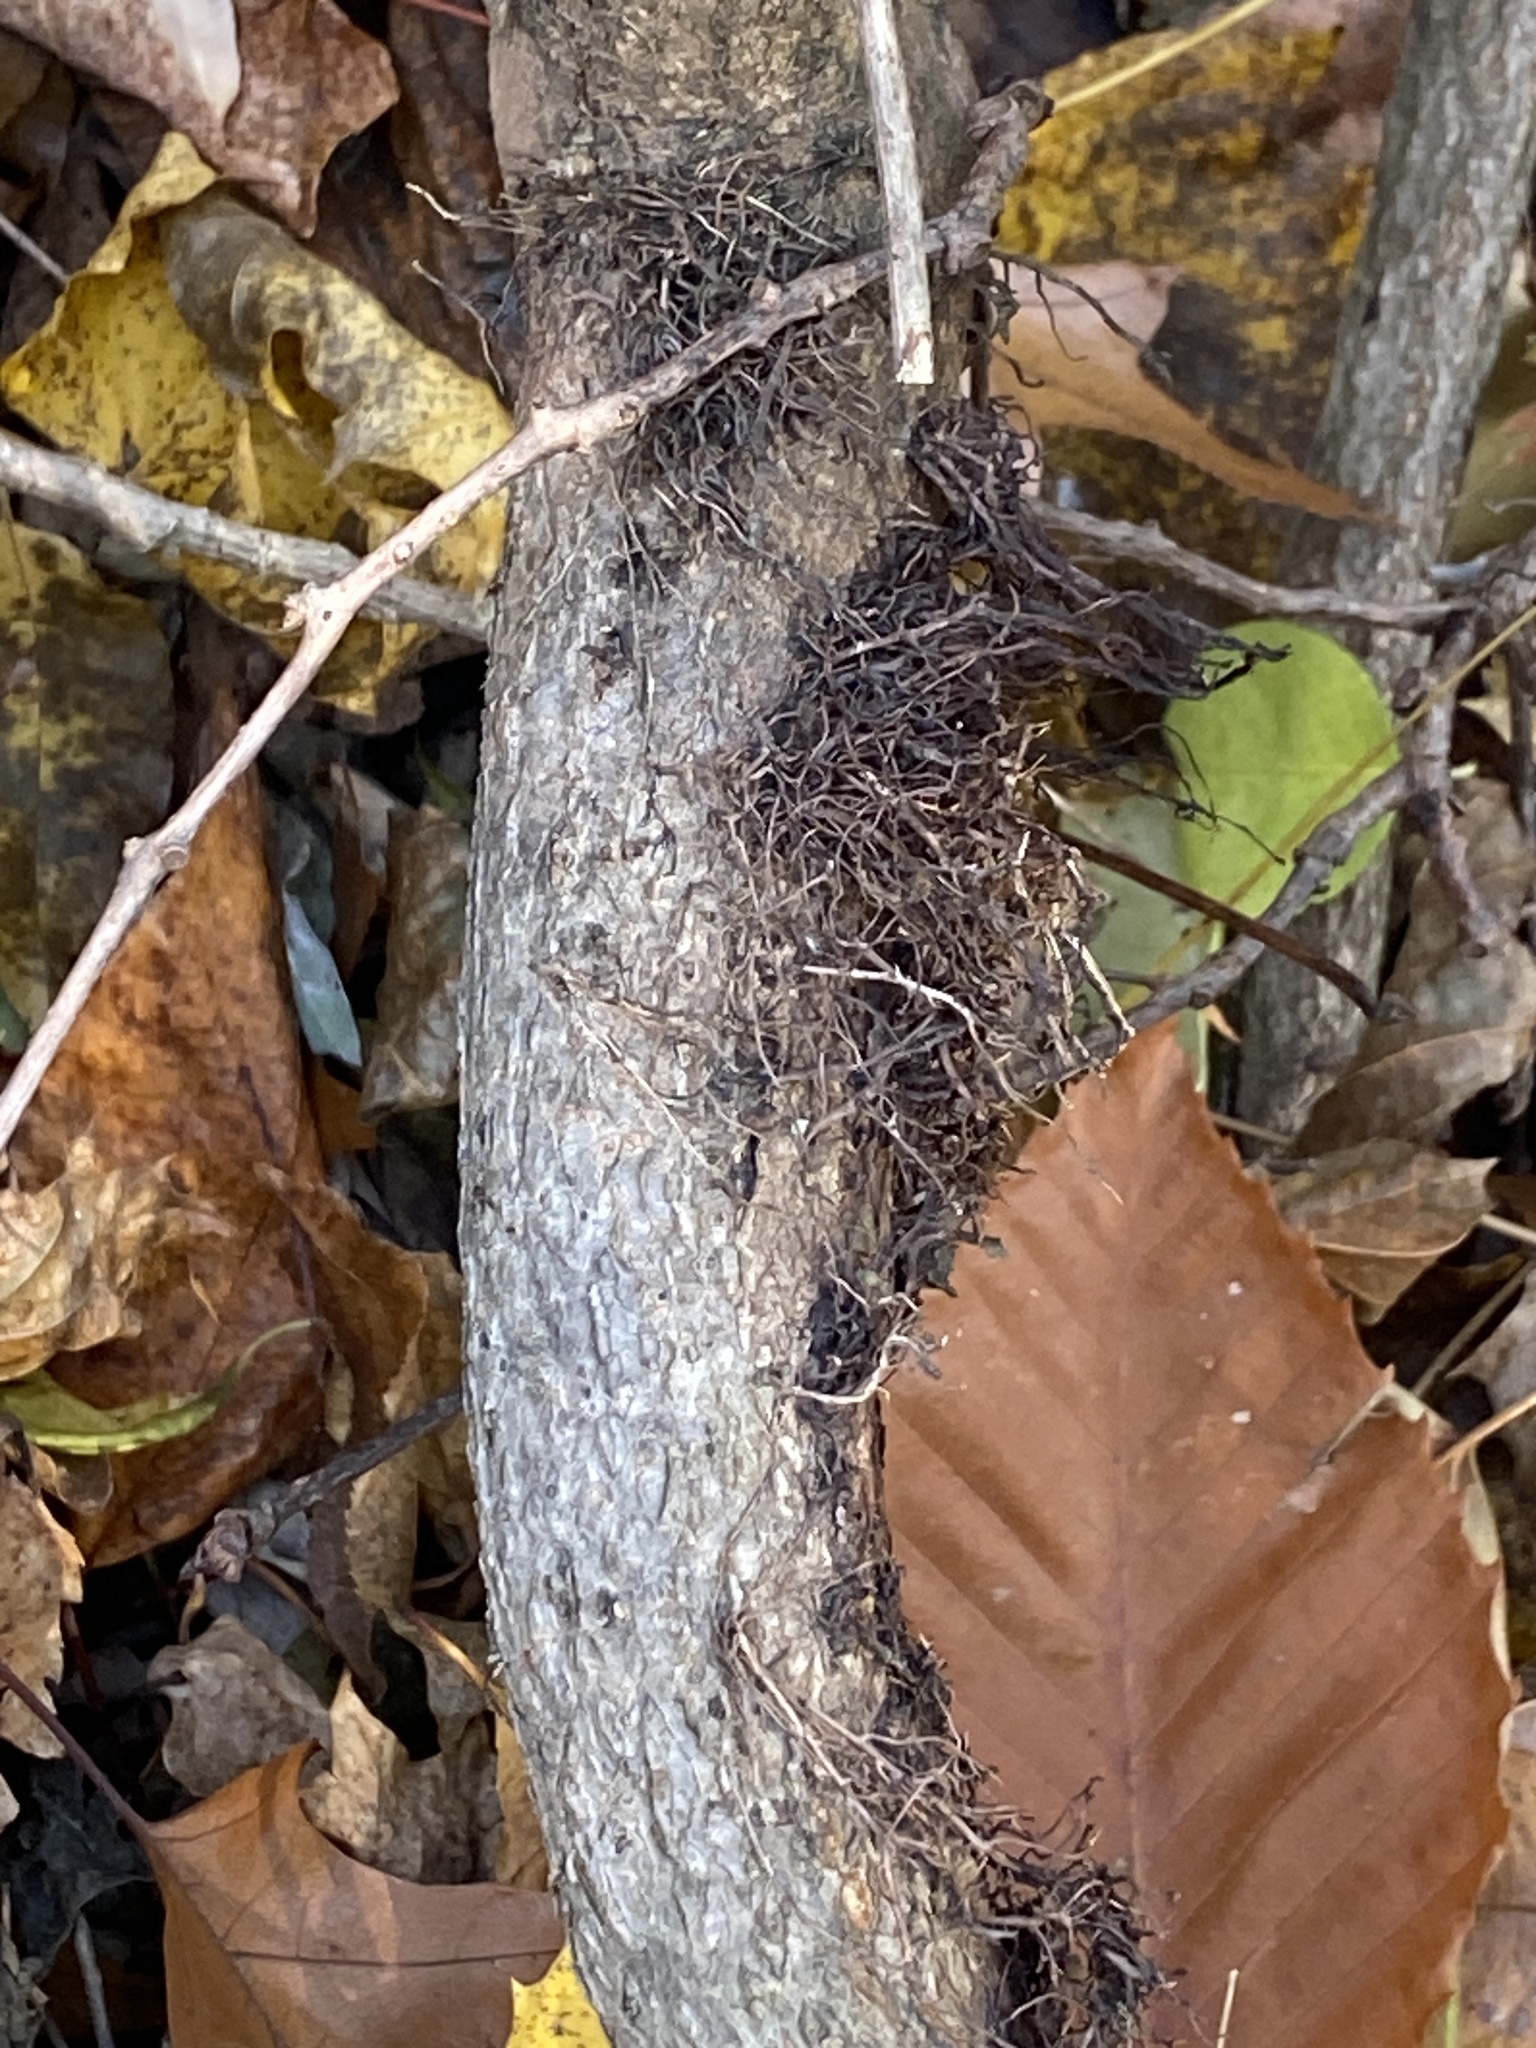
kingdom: Plantae
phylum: Tracheophyta
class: Magnoliopsida
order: Sapindales
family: Anacardiaceae
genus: Toxicodendron
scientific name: Toxicodendron radicans
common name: Poison ivy
